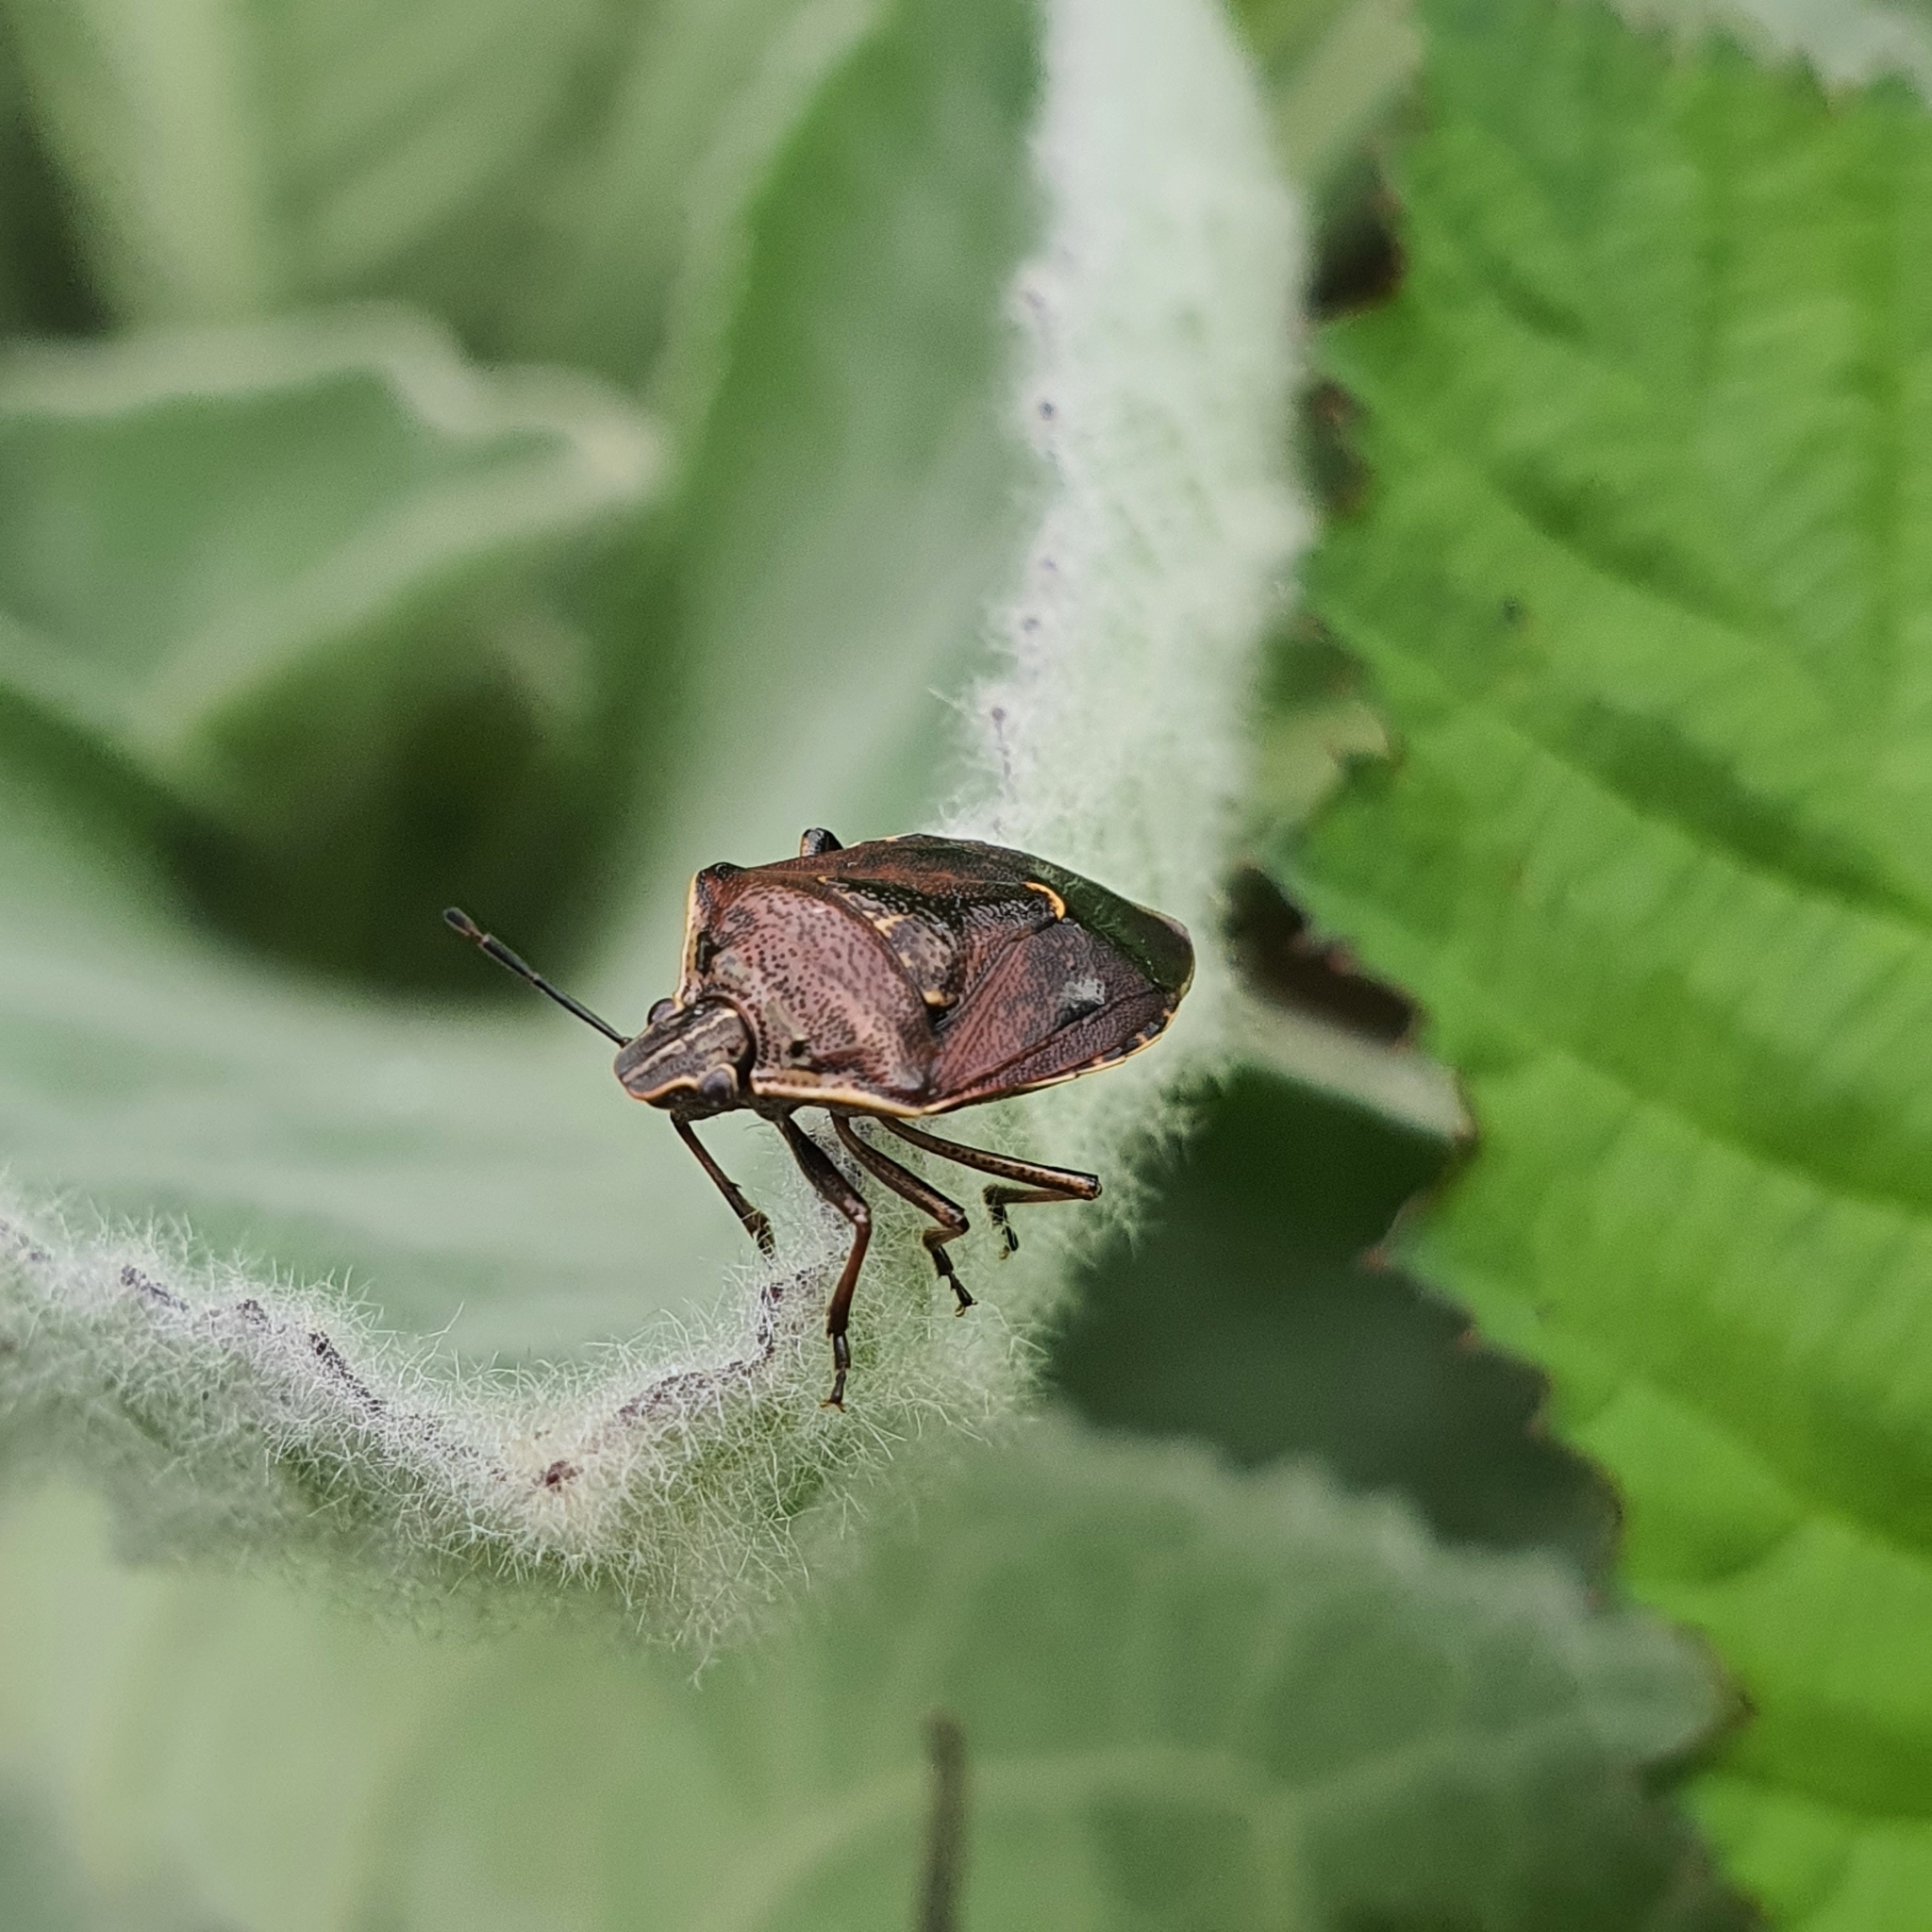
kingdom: Animalia
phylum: Arthropoda
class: Insecta
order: Hemiptera
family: Pentatomidae
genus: Cermatulus
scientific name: Cermatulus nasalis
